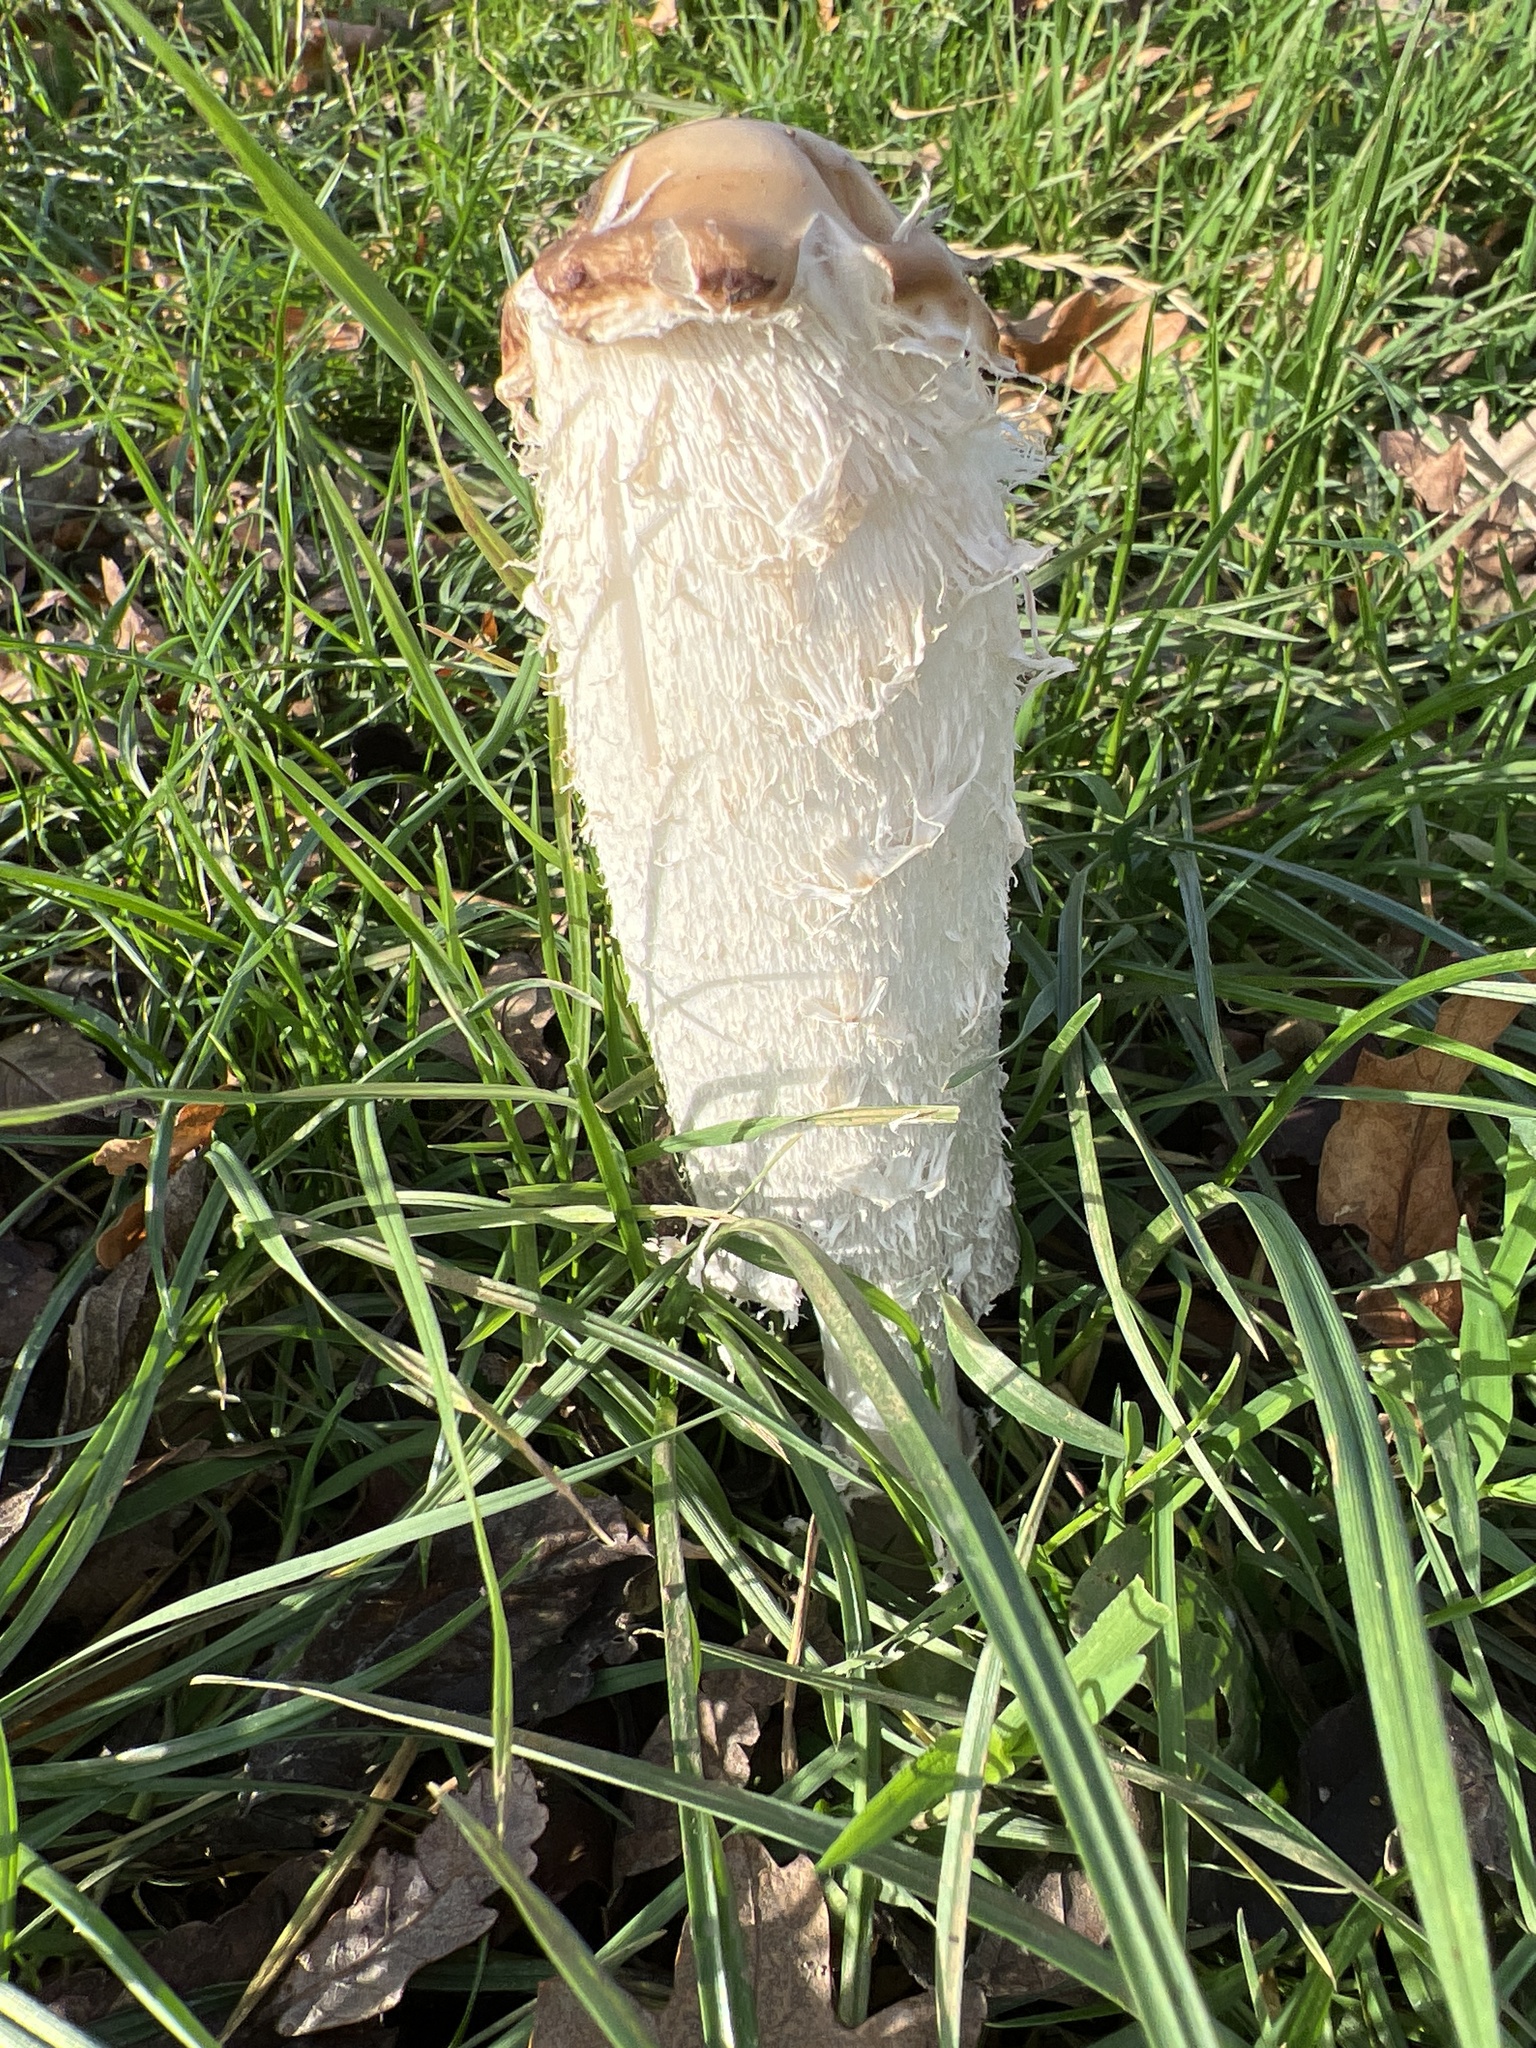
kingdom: Fungi
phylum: Basidiomycota
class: Agaricomycetes
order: Agaricales
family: Agaricaceae
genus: Coprinus
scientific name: Coprinus comatus
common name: Lawyer's wig
